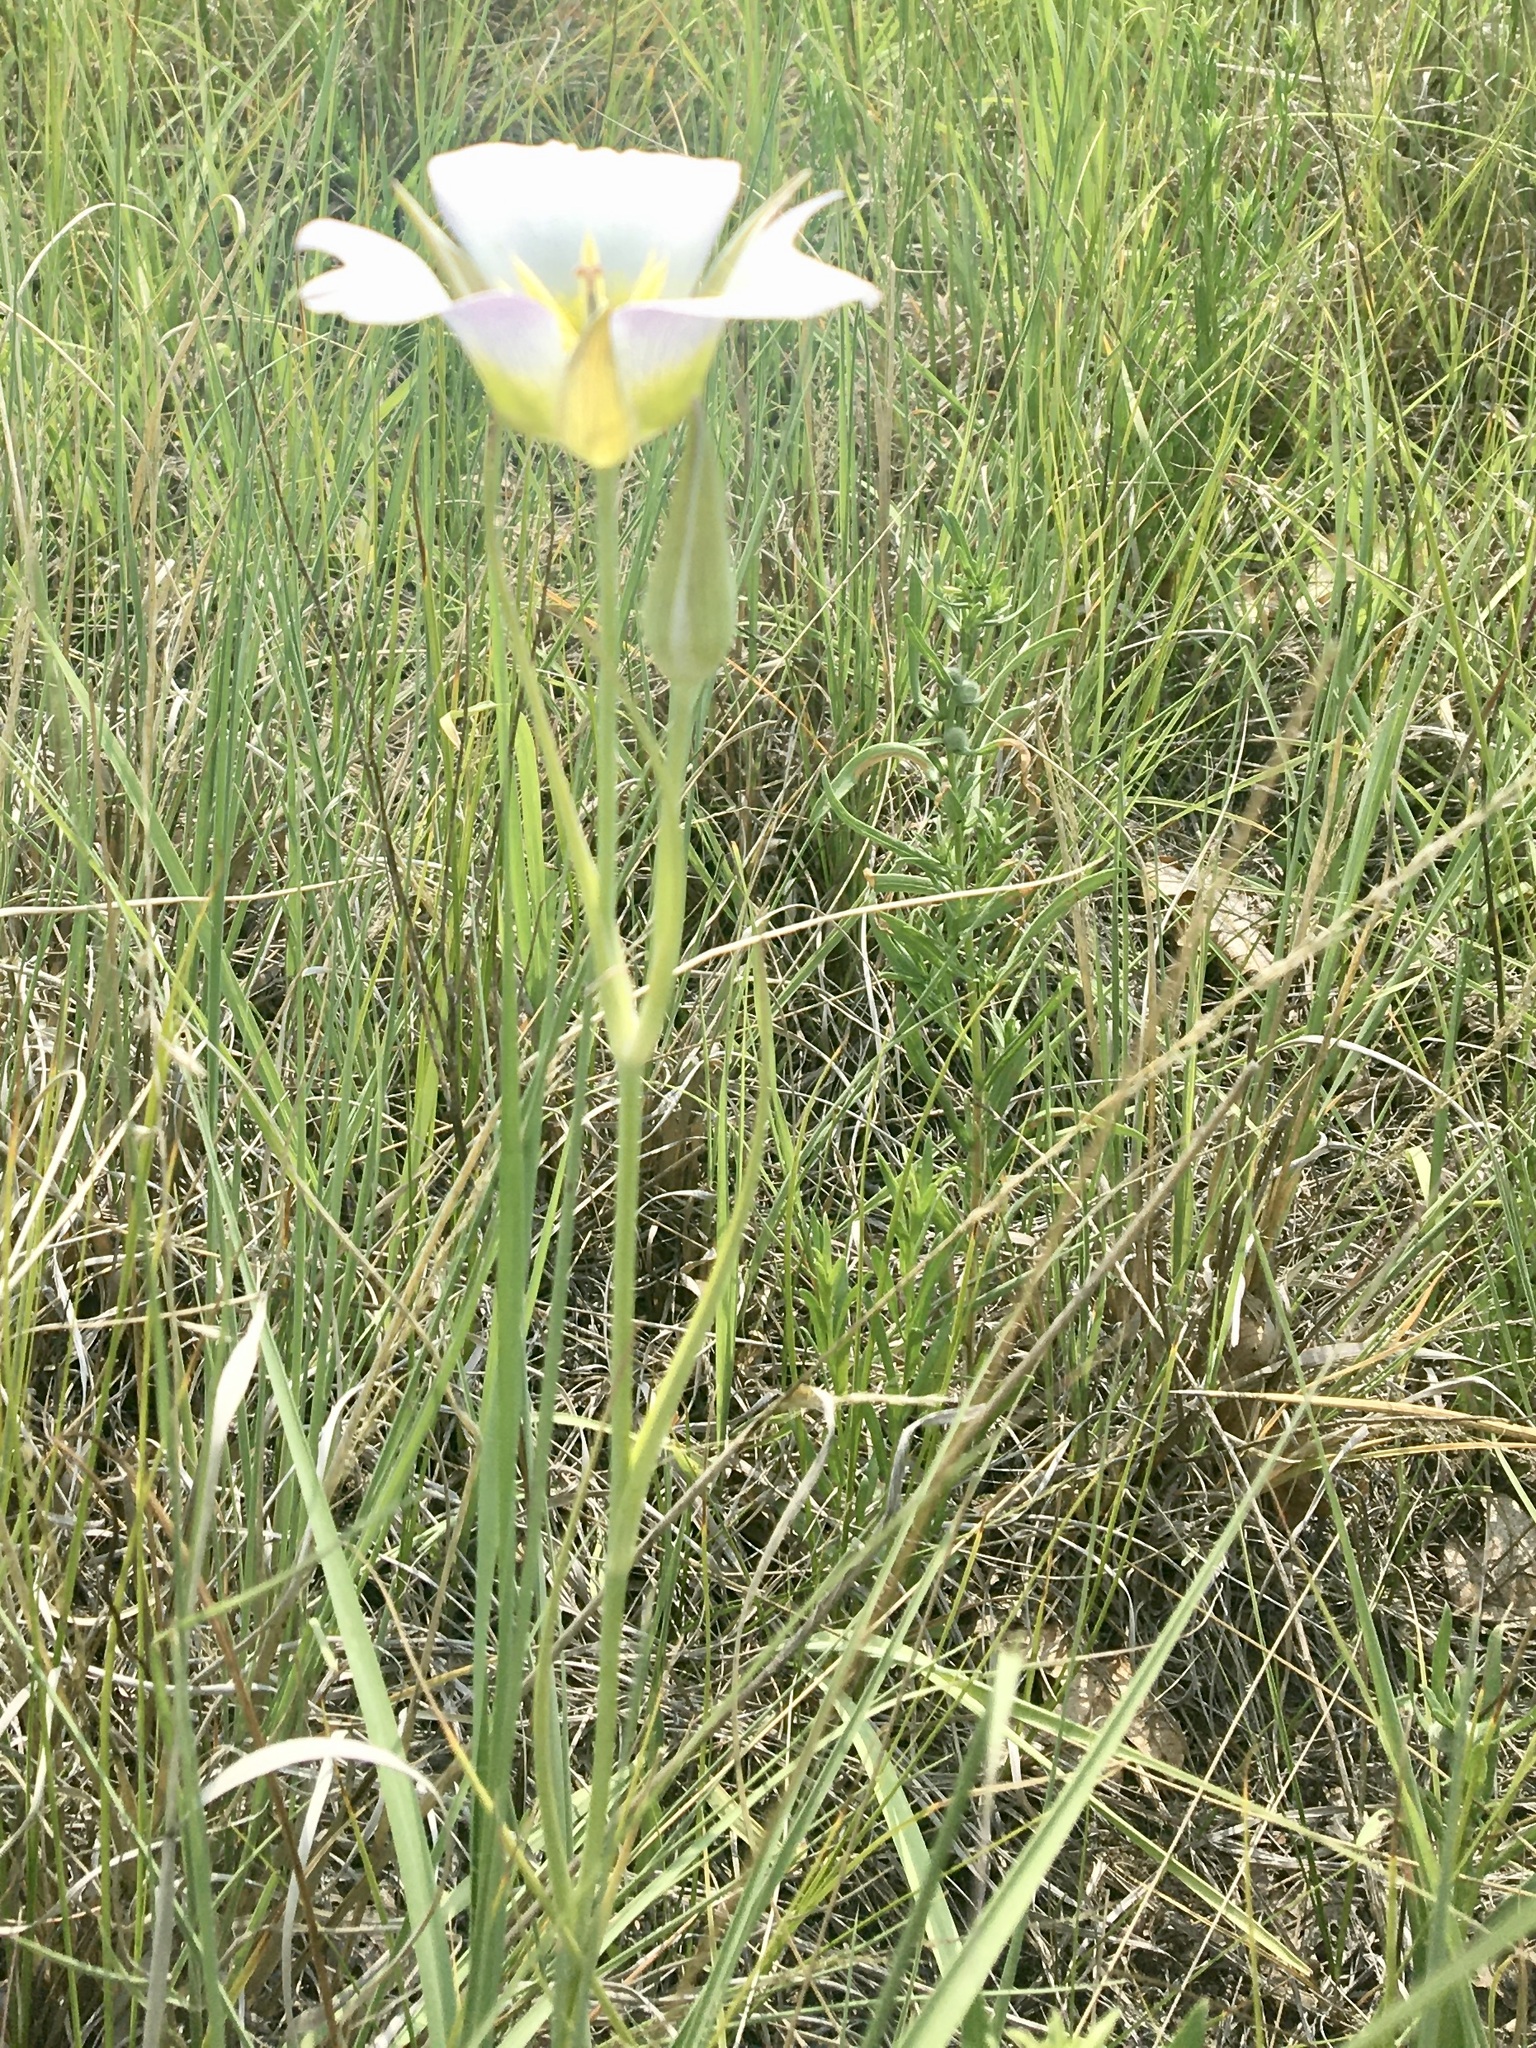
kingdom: Plantae
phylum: Tracheophyta
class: Liliopsida
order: Liliales
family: Liliaceae
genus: Calochortus
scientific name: Calochortus gunnisonii
